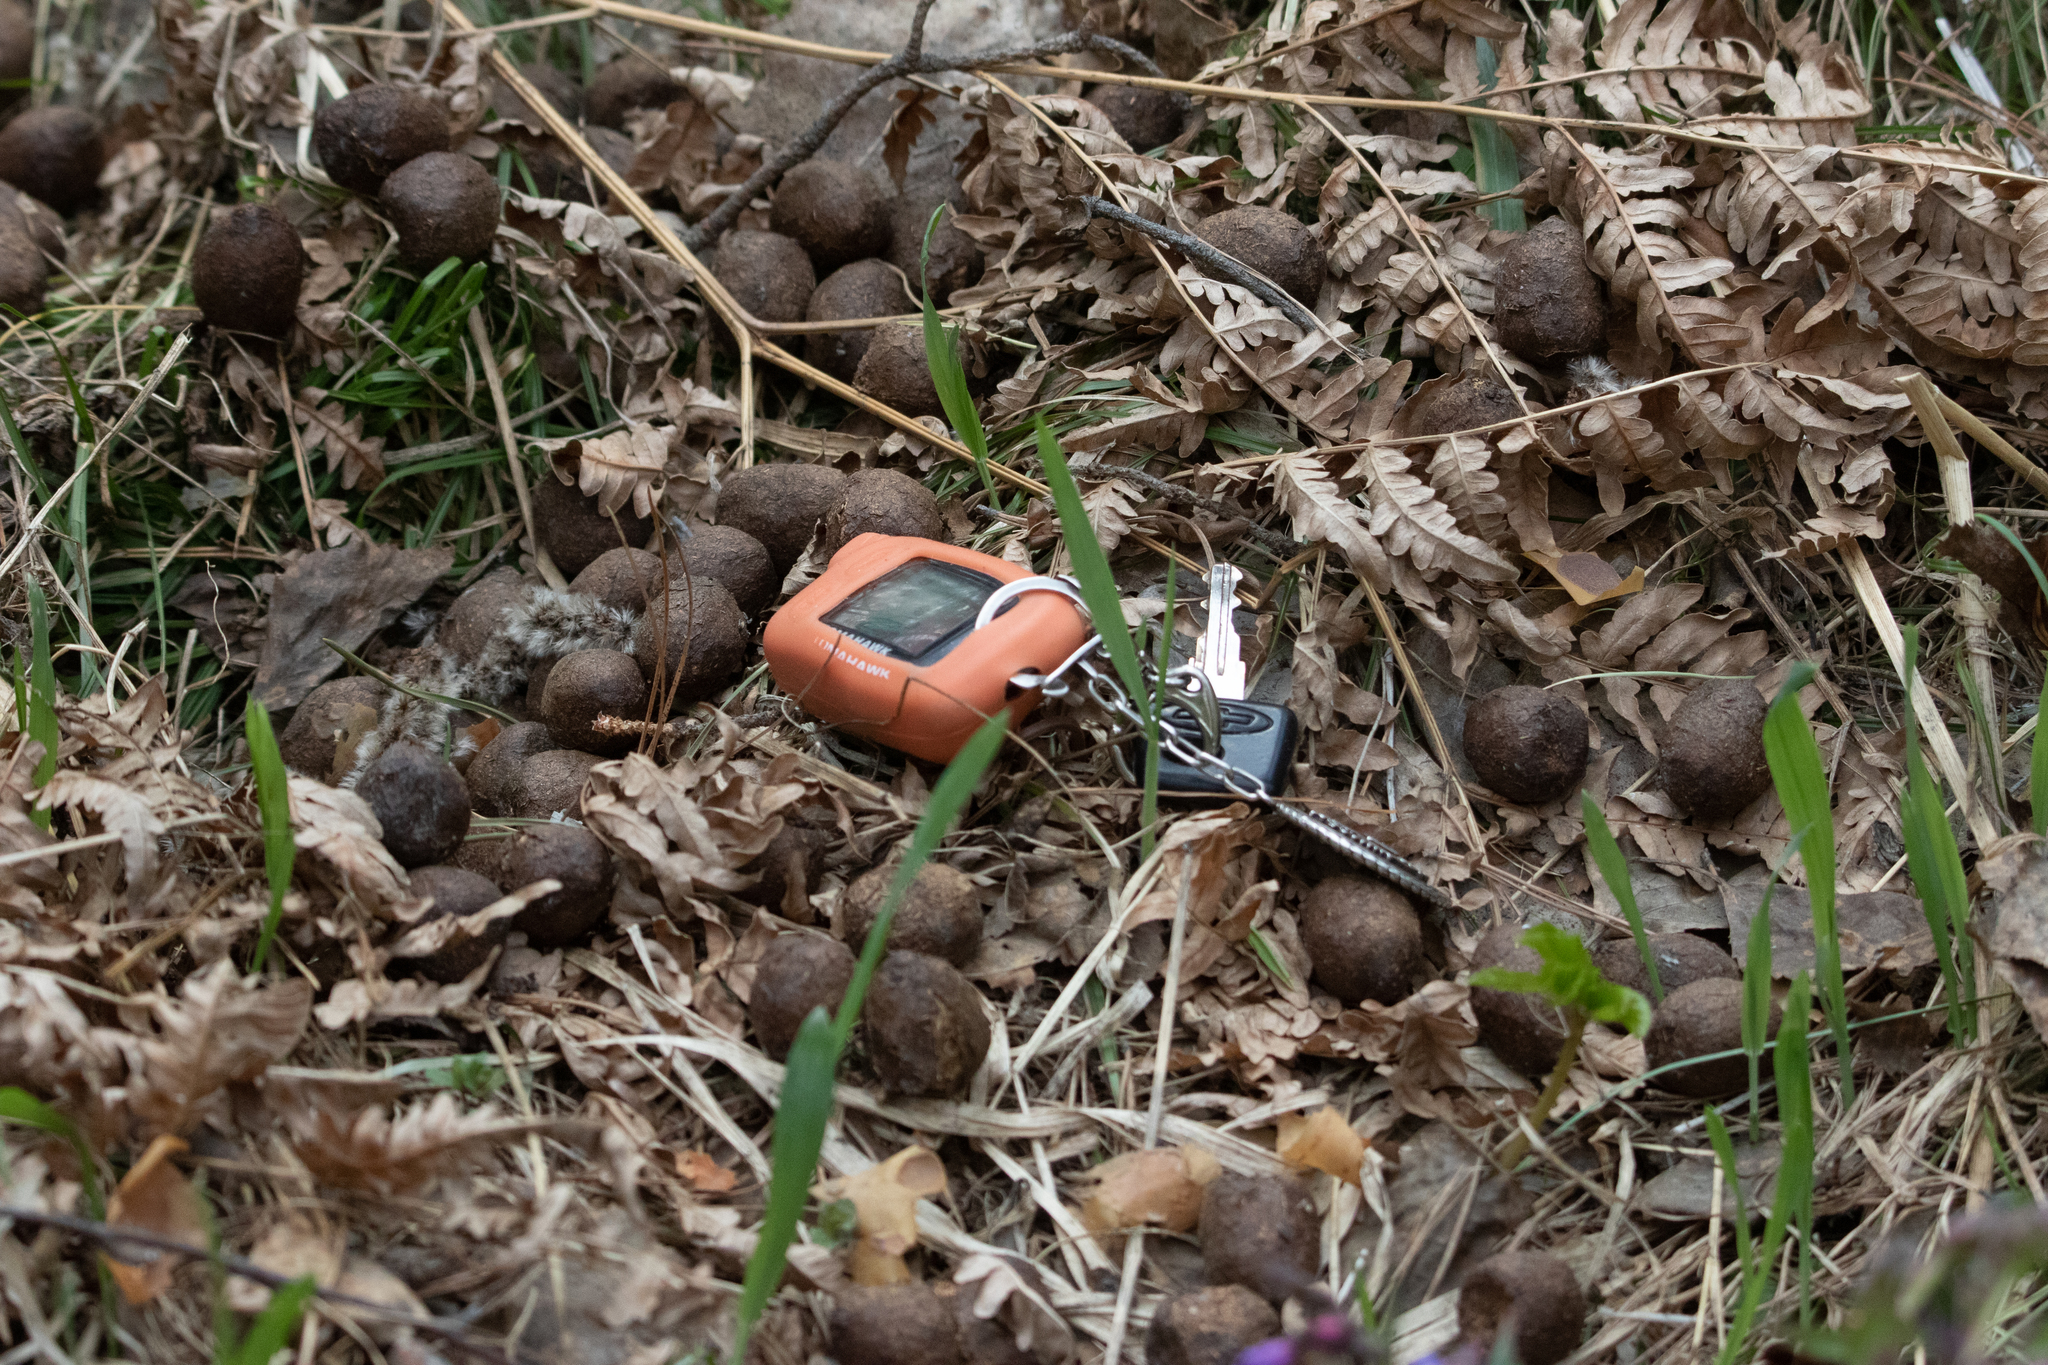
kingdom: Animalia
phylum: Chordata
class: Mammalia
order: Artiodactyla
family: Cervidae
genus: Alces
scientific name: Alces alces
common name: Moose
